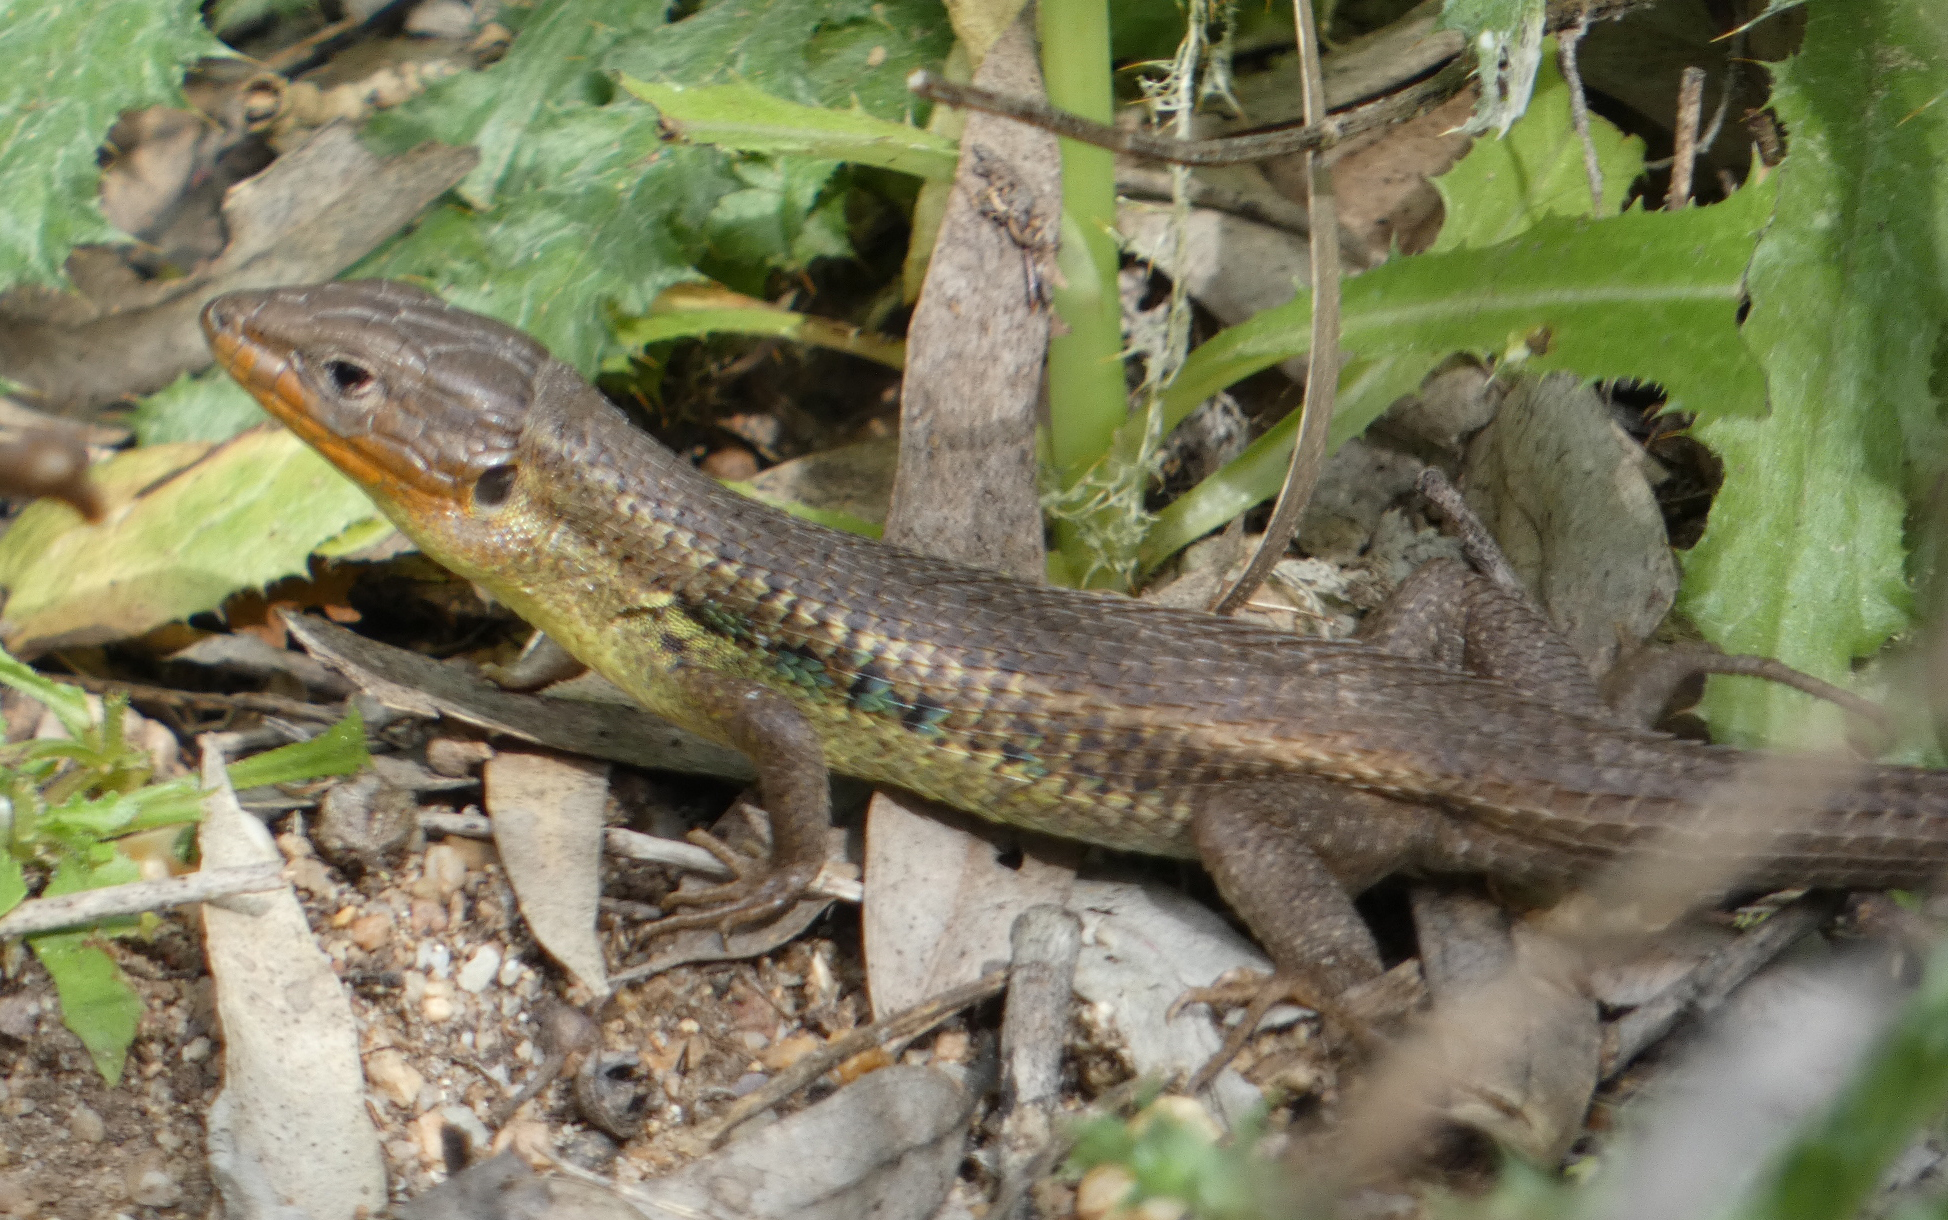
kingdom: Animalia
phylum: Chordata
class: Squamata
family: Lacertidae
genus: Psammodromus
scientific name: Psammodromus algirus
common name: Algerian psammodromus
